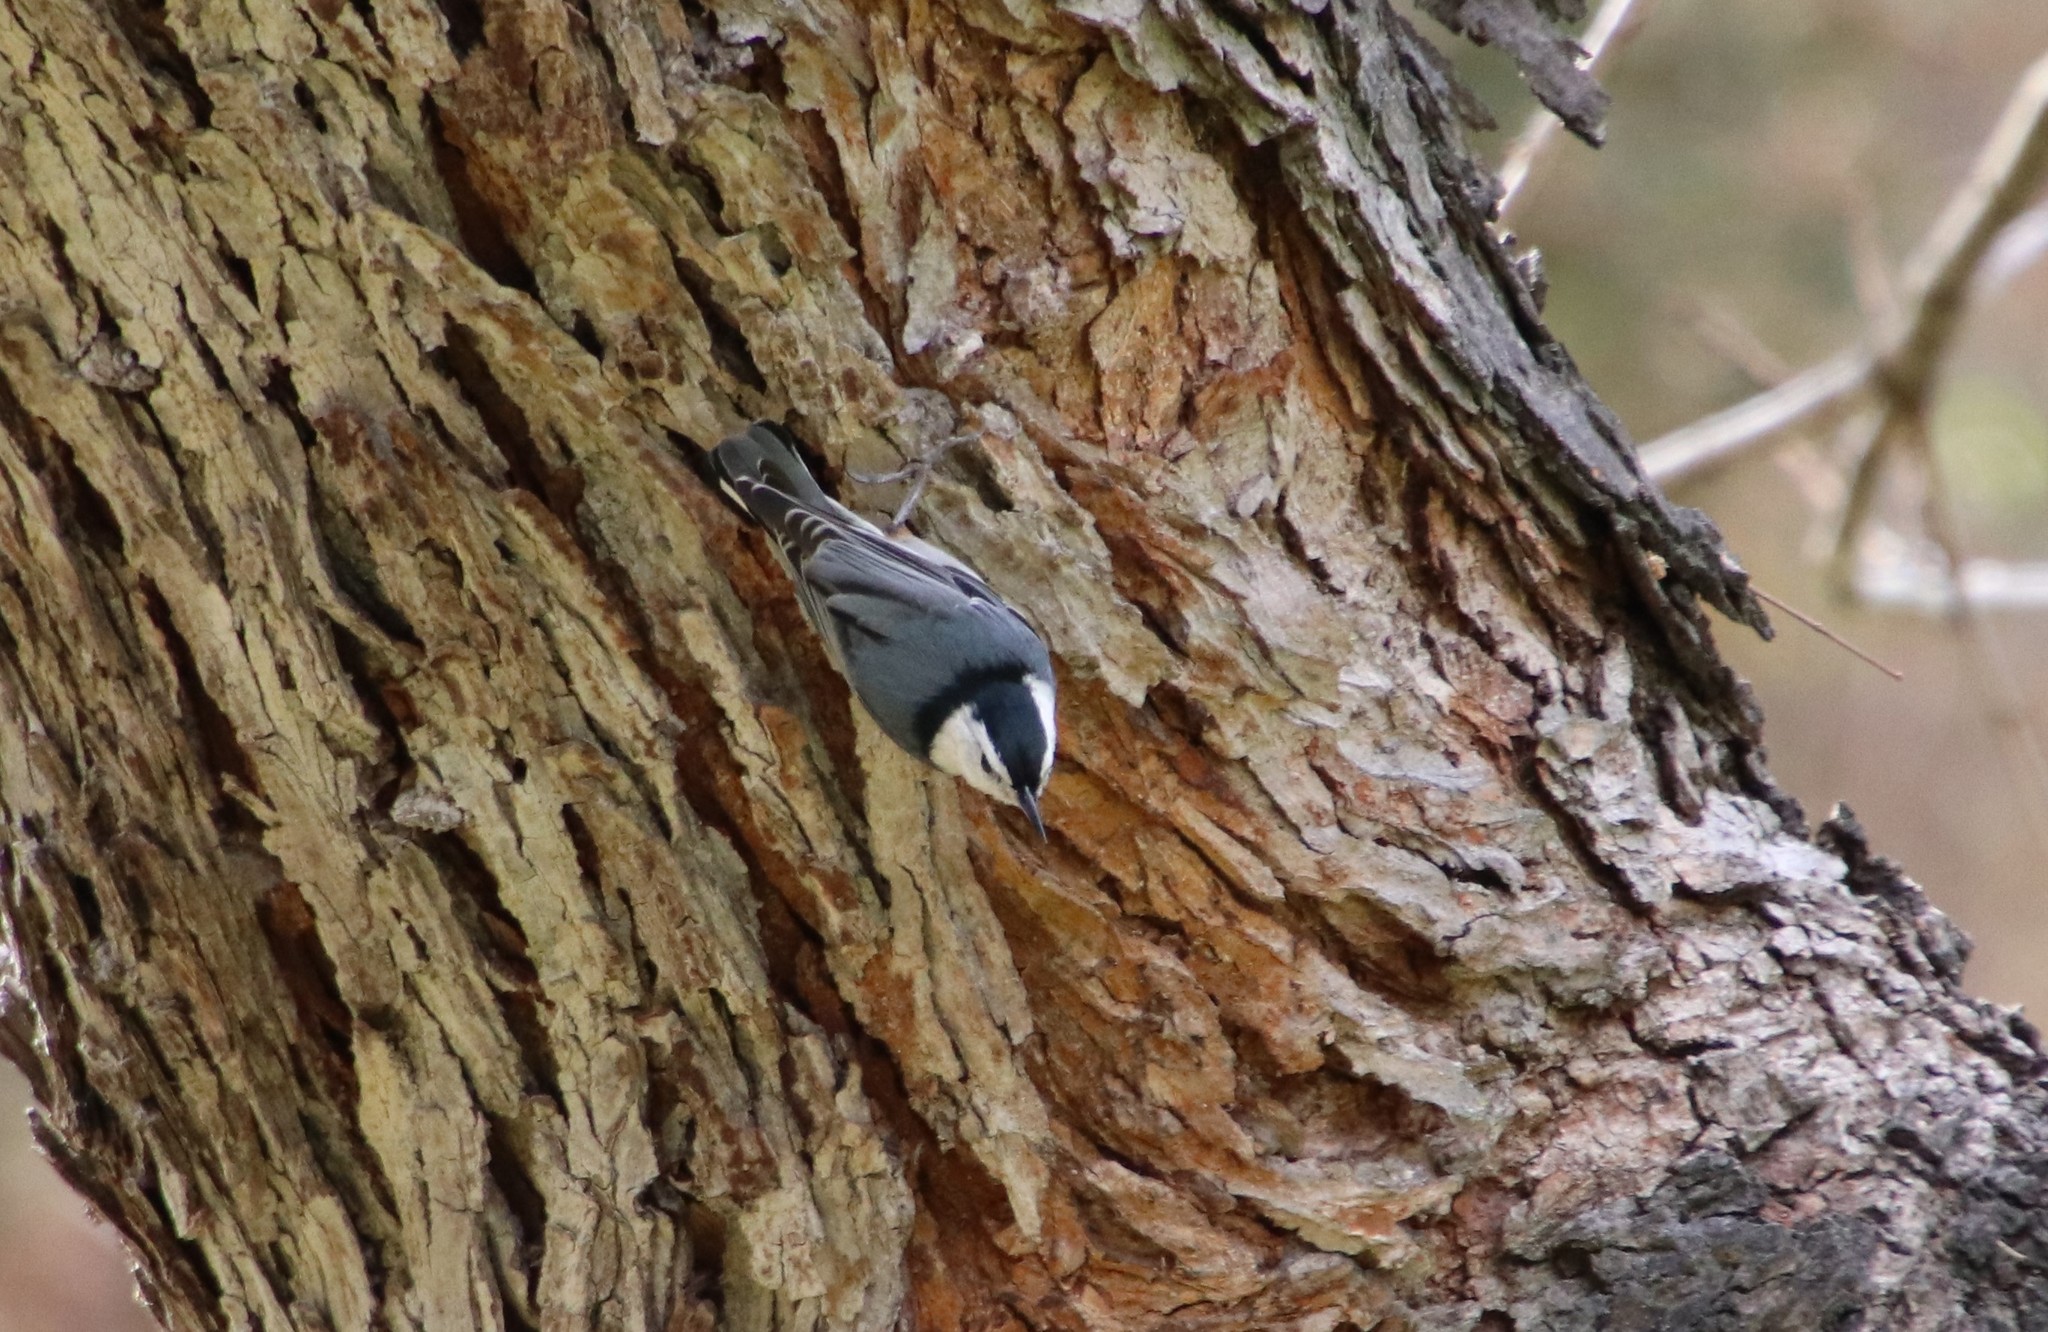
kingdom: Animalia
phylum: Chordata
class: Aves
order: Passeriformes
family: Sittidae
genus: Sitta
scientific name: Sitta carolinensis
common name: White-breasted nuthatch
